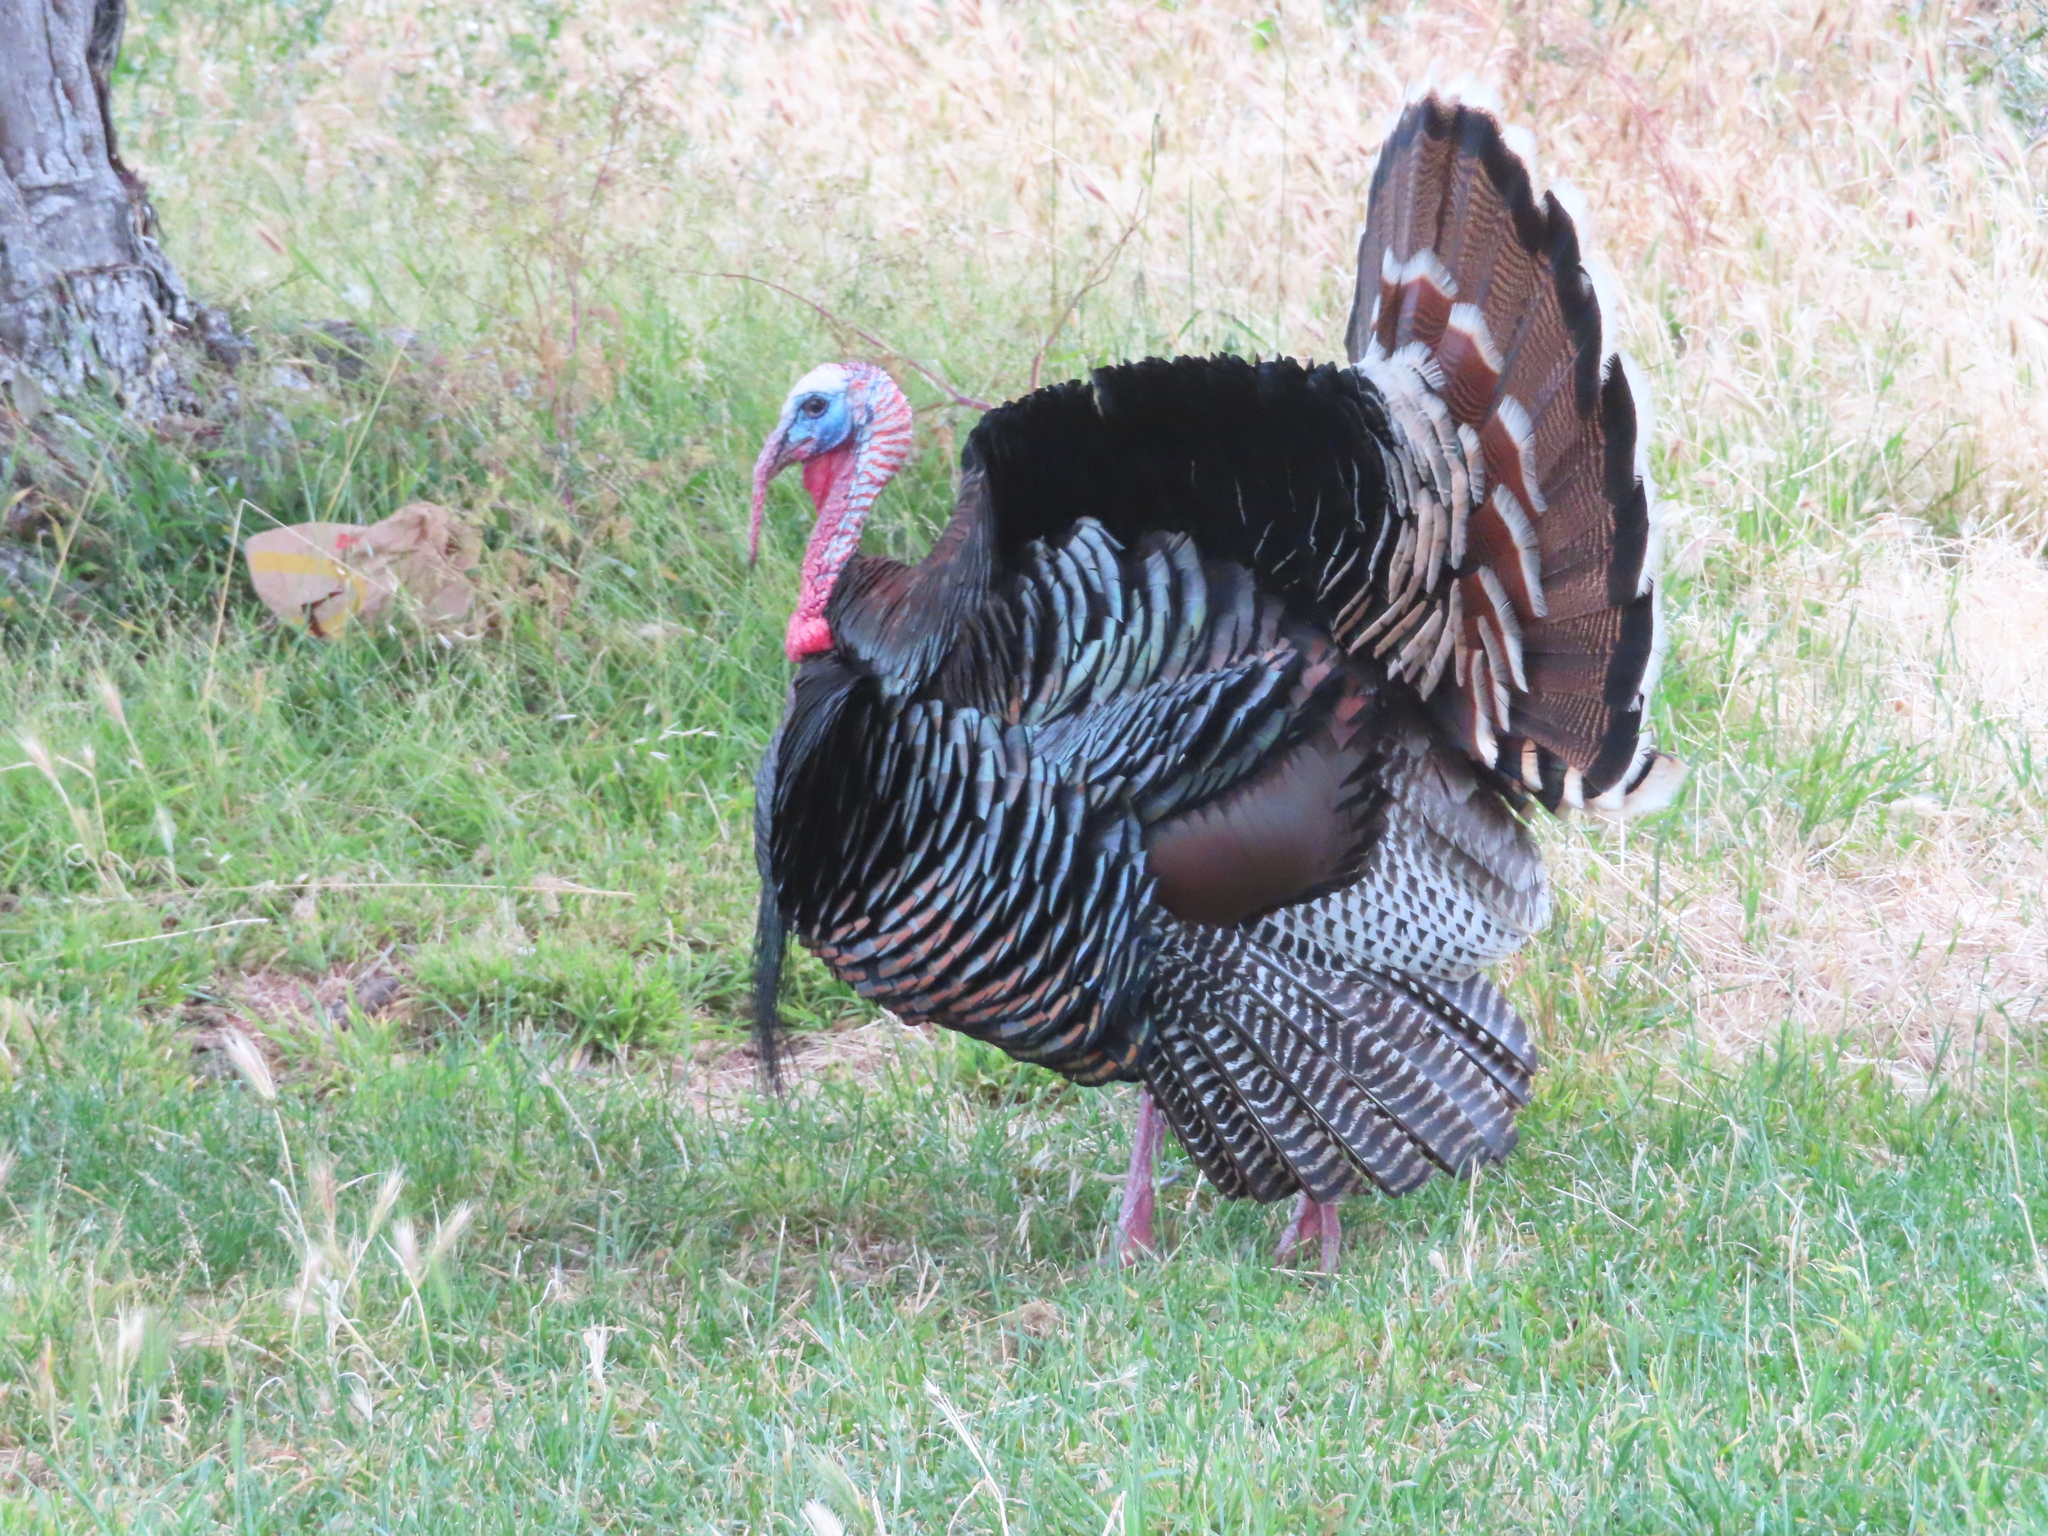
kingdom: Animalia
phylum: Chordata
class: Aves
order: Galliformes
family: Phasianidae
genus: Meleagris
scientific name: Meleagris gallopavo
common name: Wild turkey
